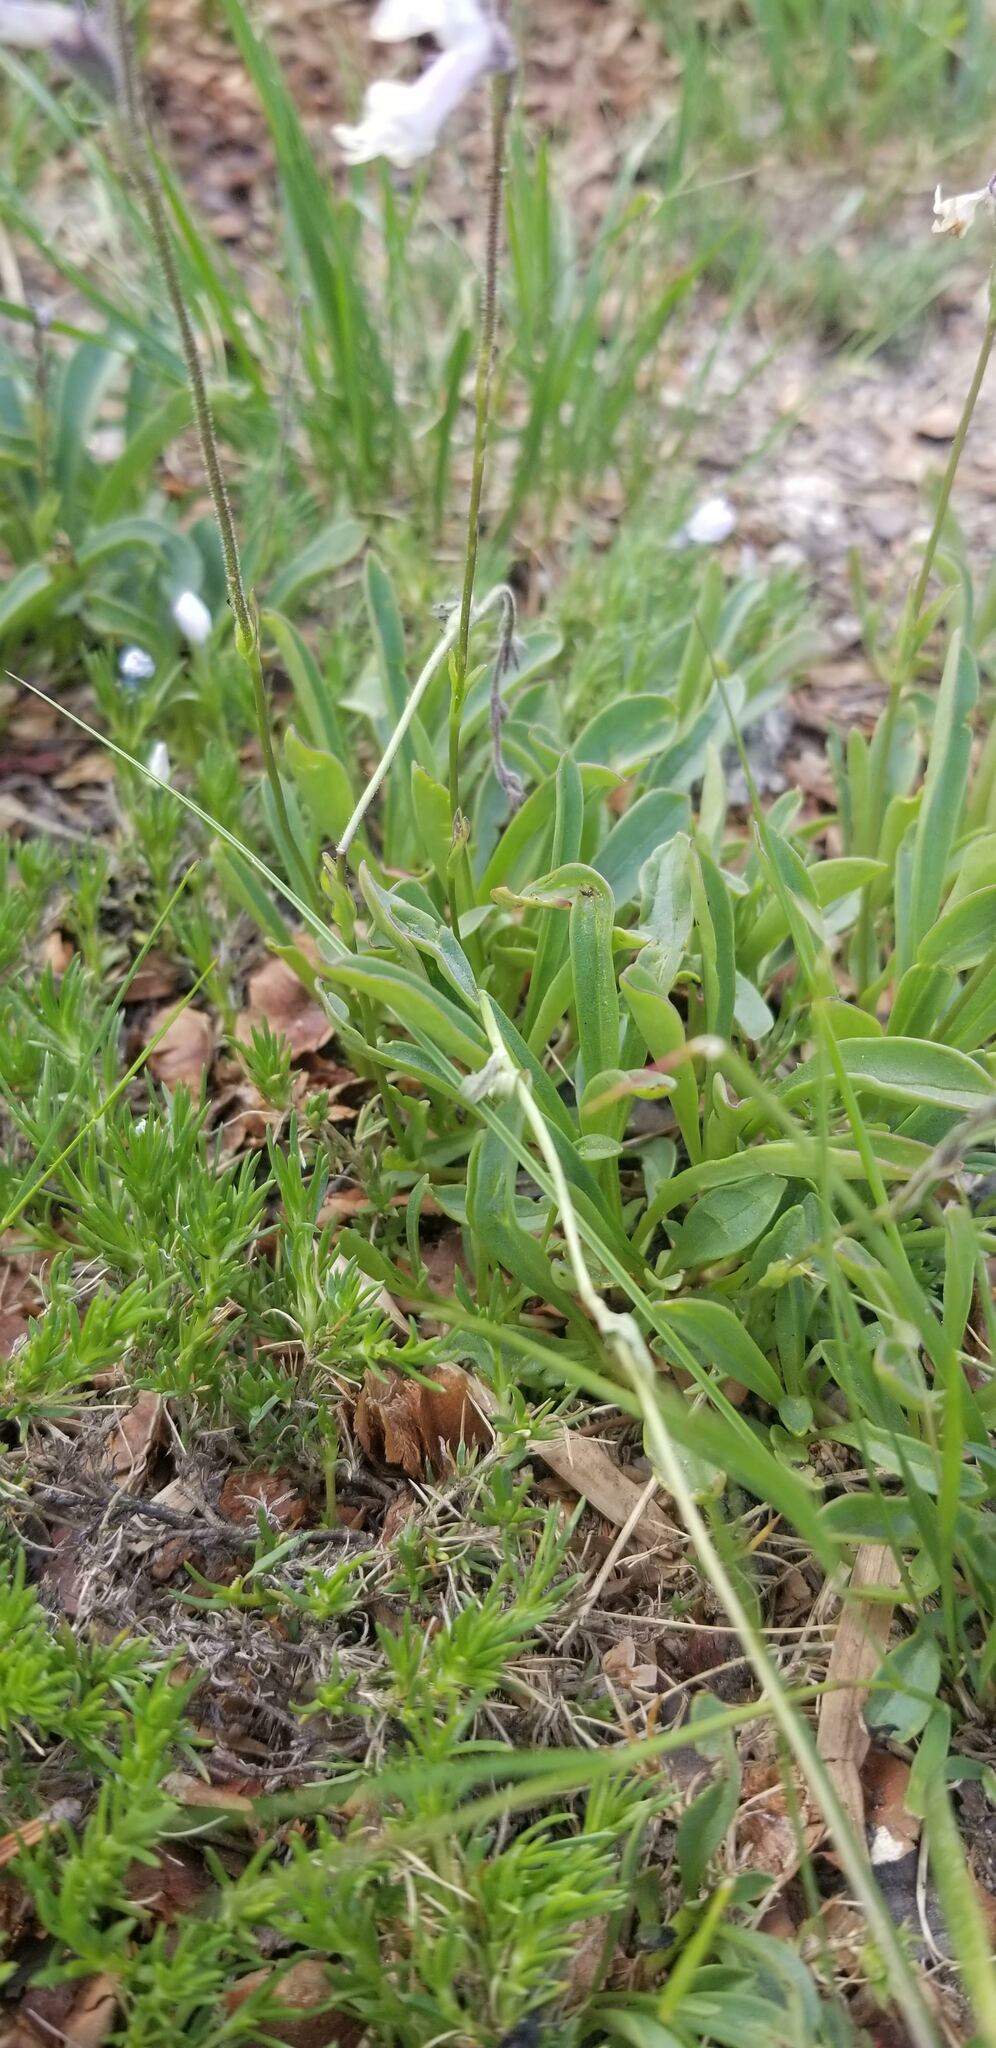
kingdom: Plantae
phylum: Tracheophyta
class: Magnoliopsida
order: Lamiales
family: Plantaginaceae
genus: Chionophila
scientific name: Chionophila tweedyi
